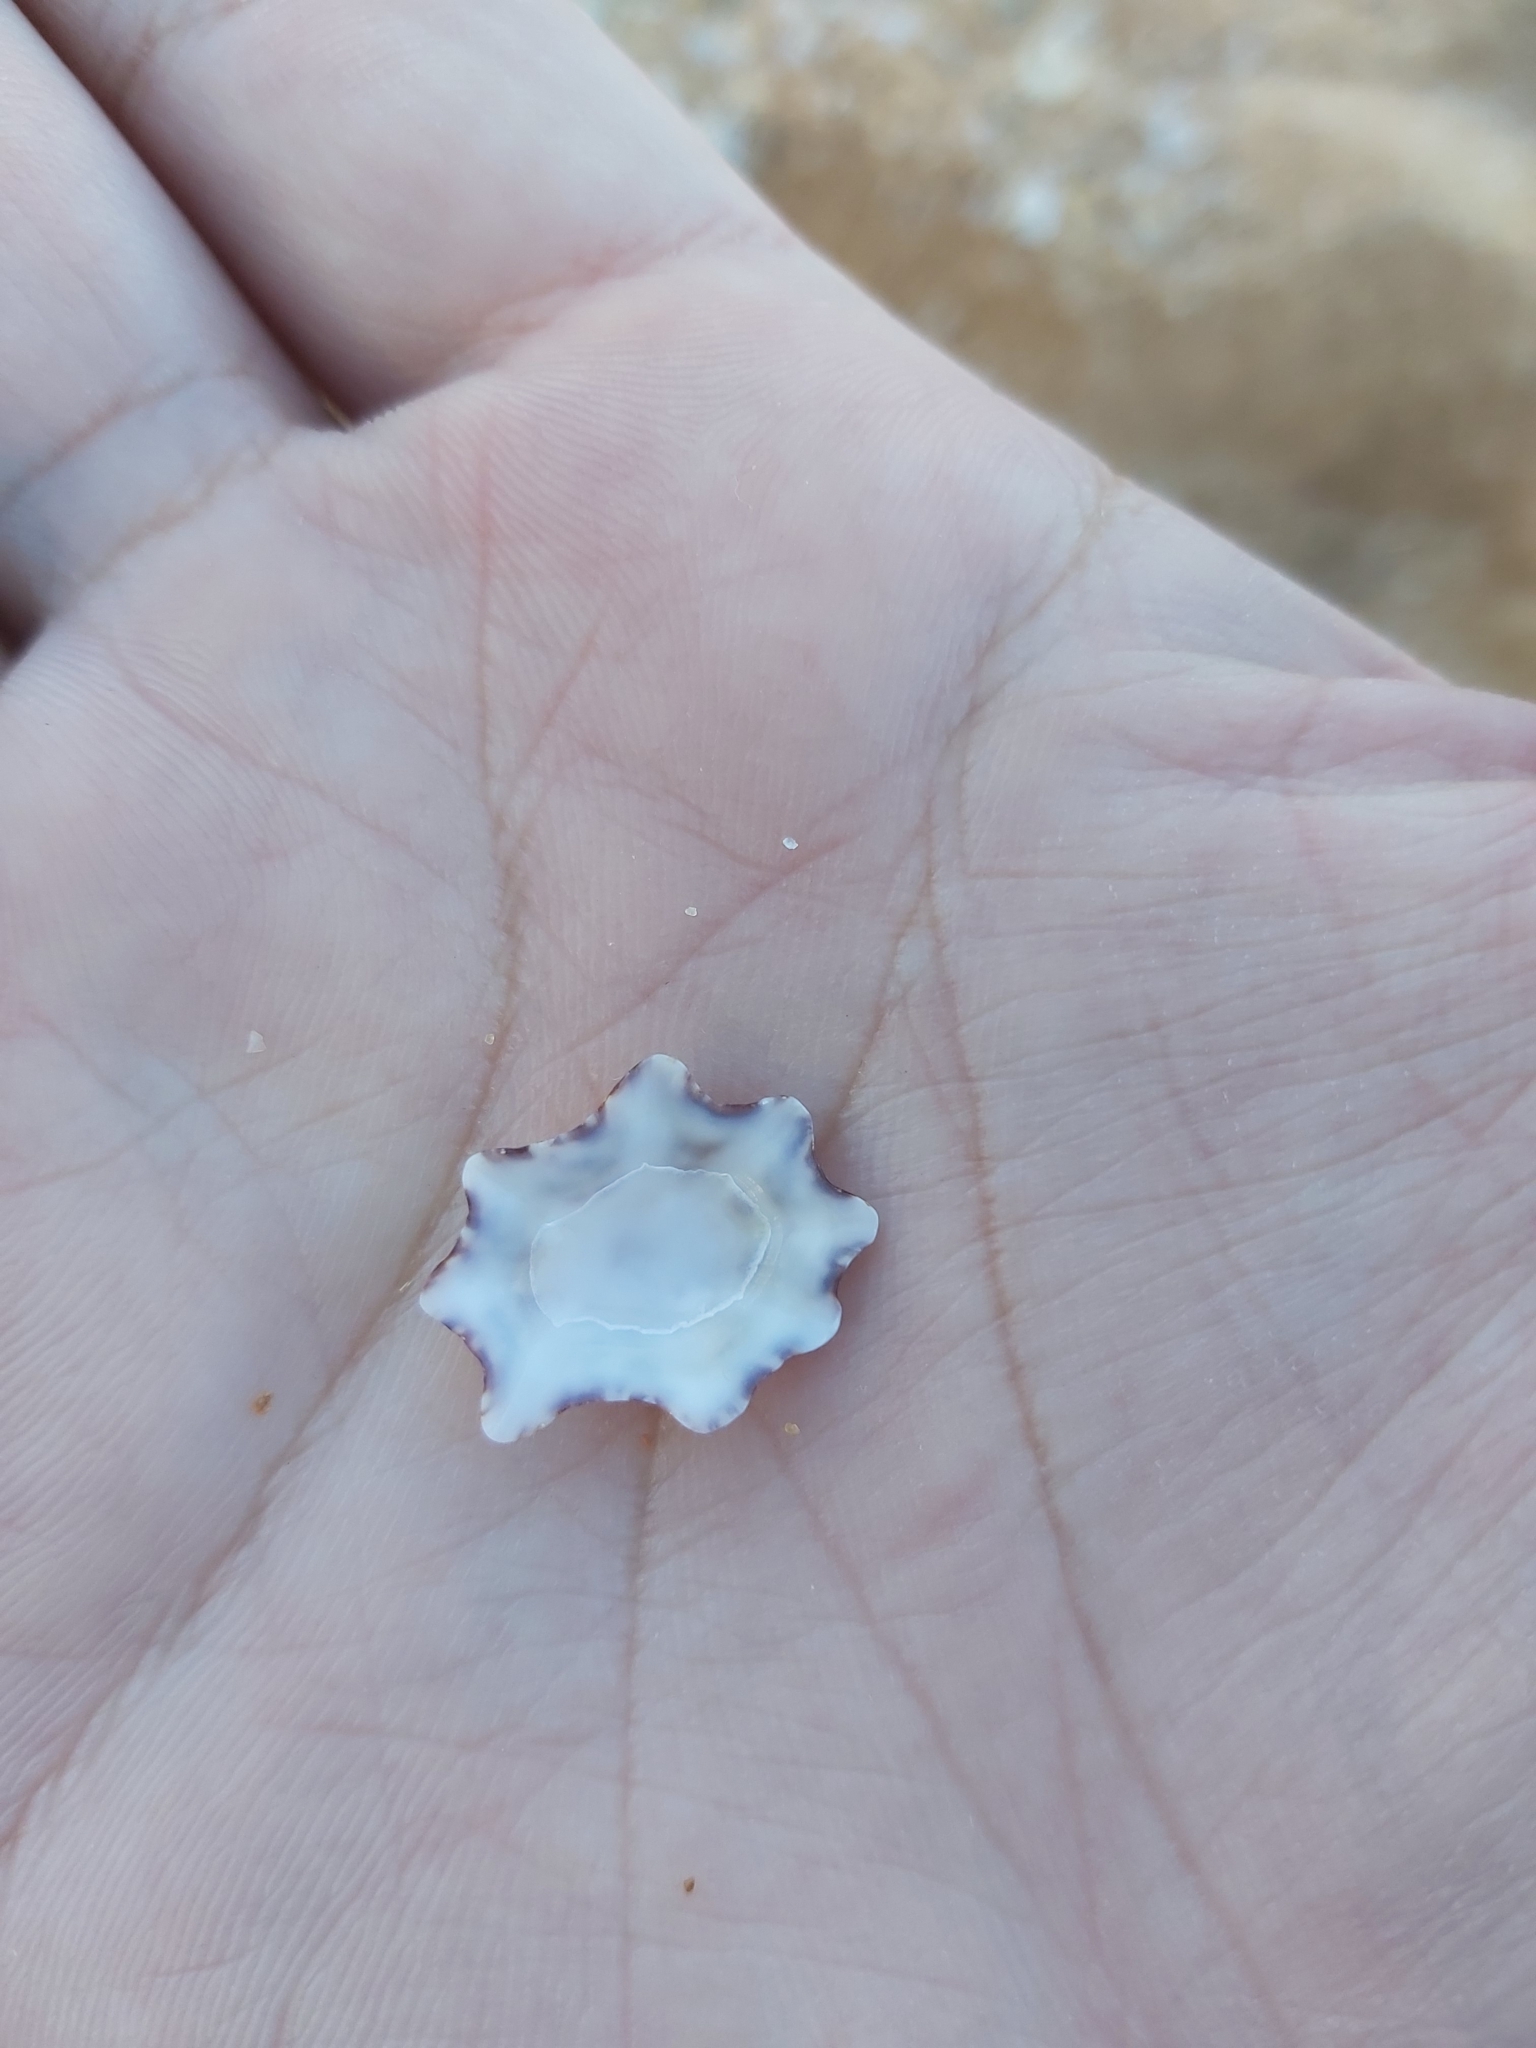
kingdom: Animalia
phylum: Mollusca
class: Gastropoda
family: Patellidae
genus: Scutellastra
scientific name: Scutellastra chapmani
